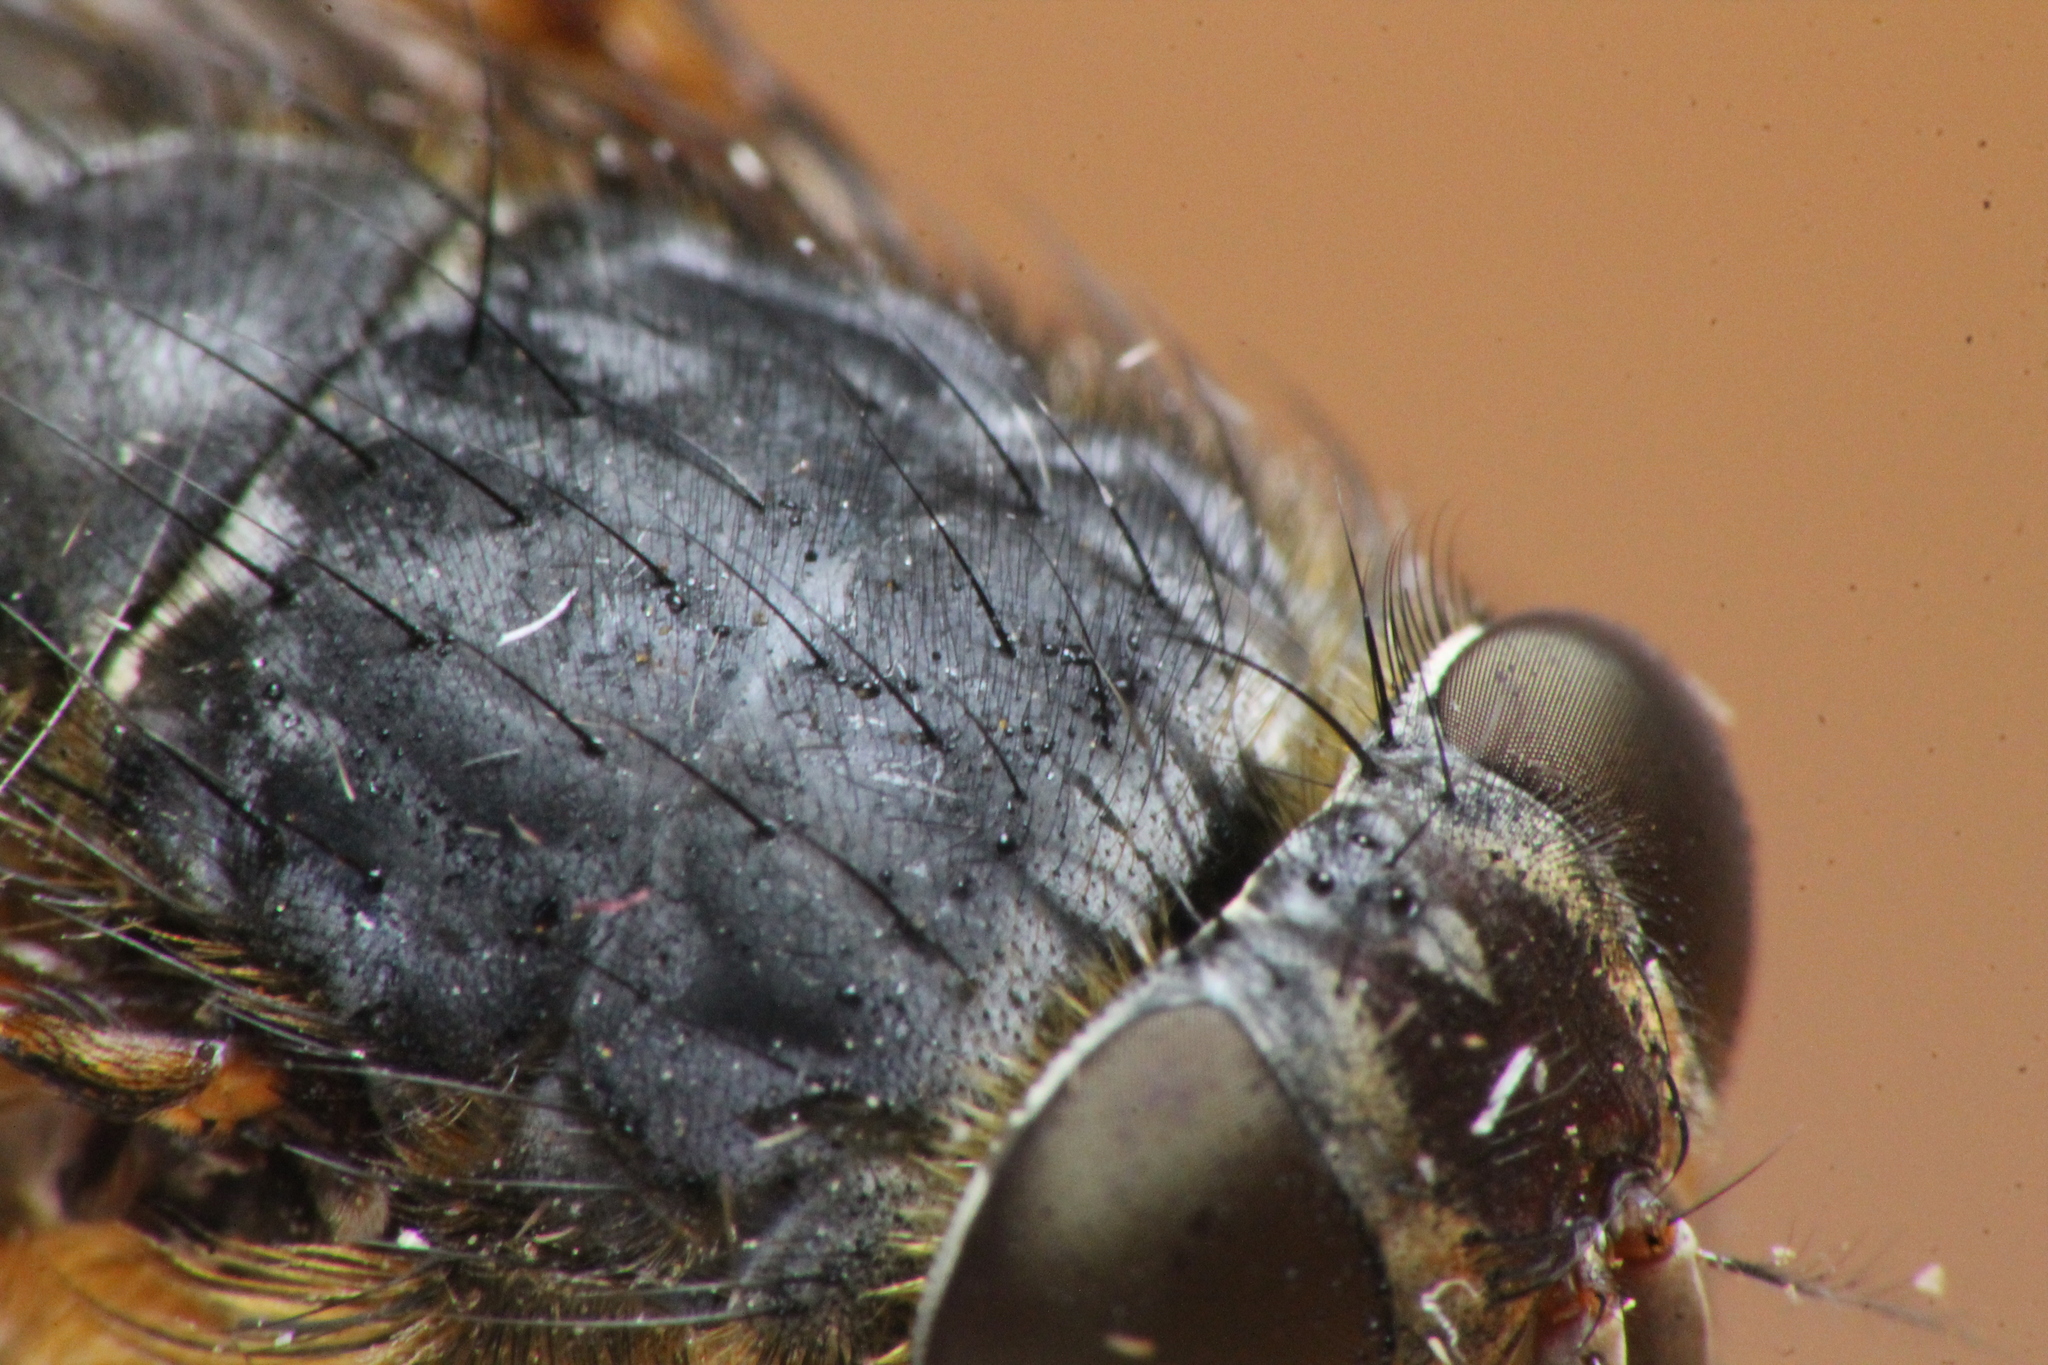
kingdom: Animalia
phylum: Arthropoda
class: Insecta
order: Diptera
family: Calliphoridae
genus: Calliphora
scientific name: Calliphora stygia
